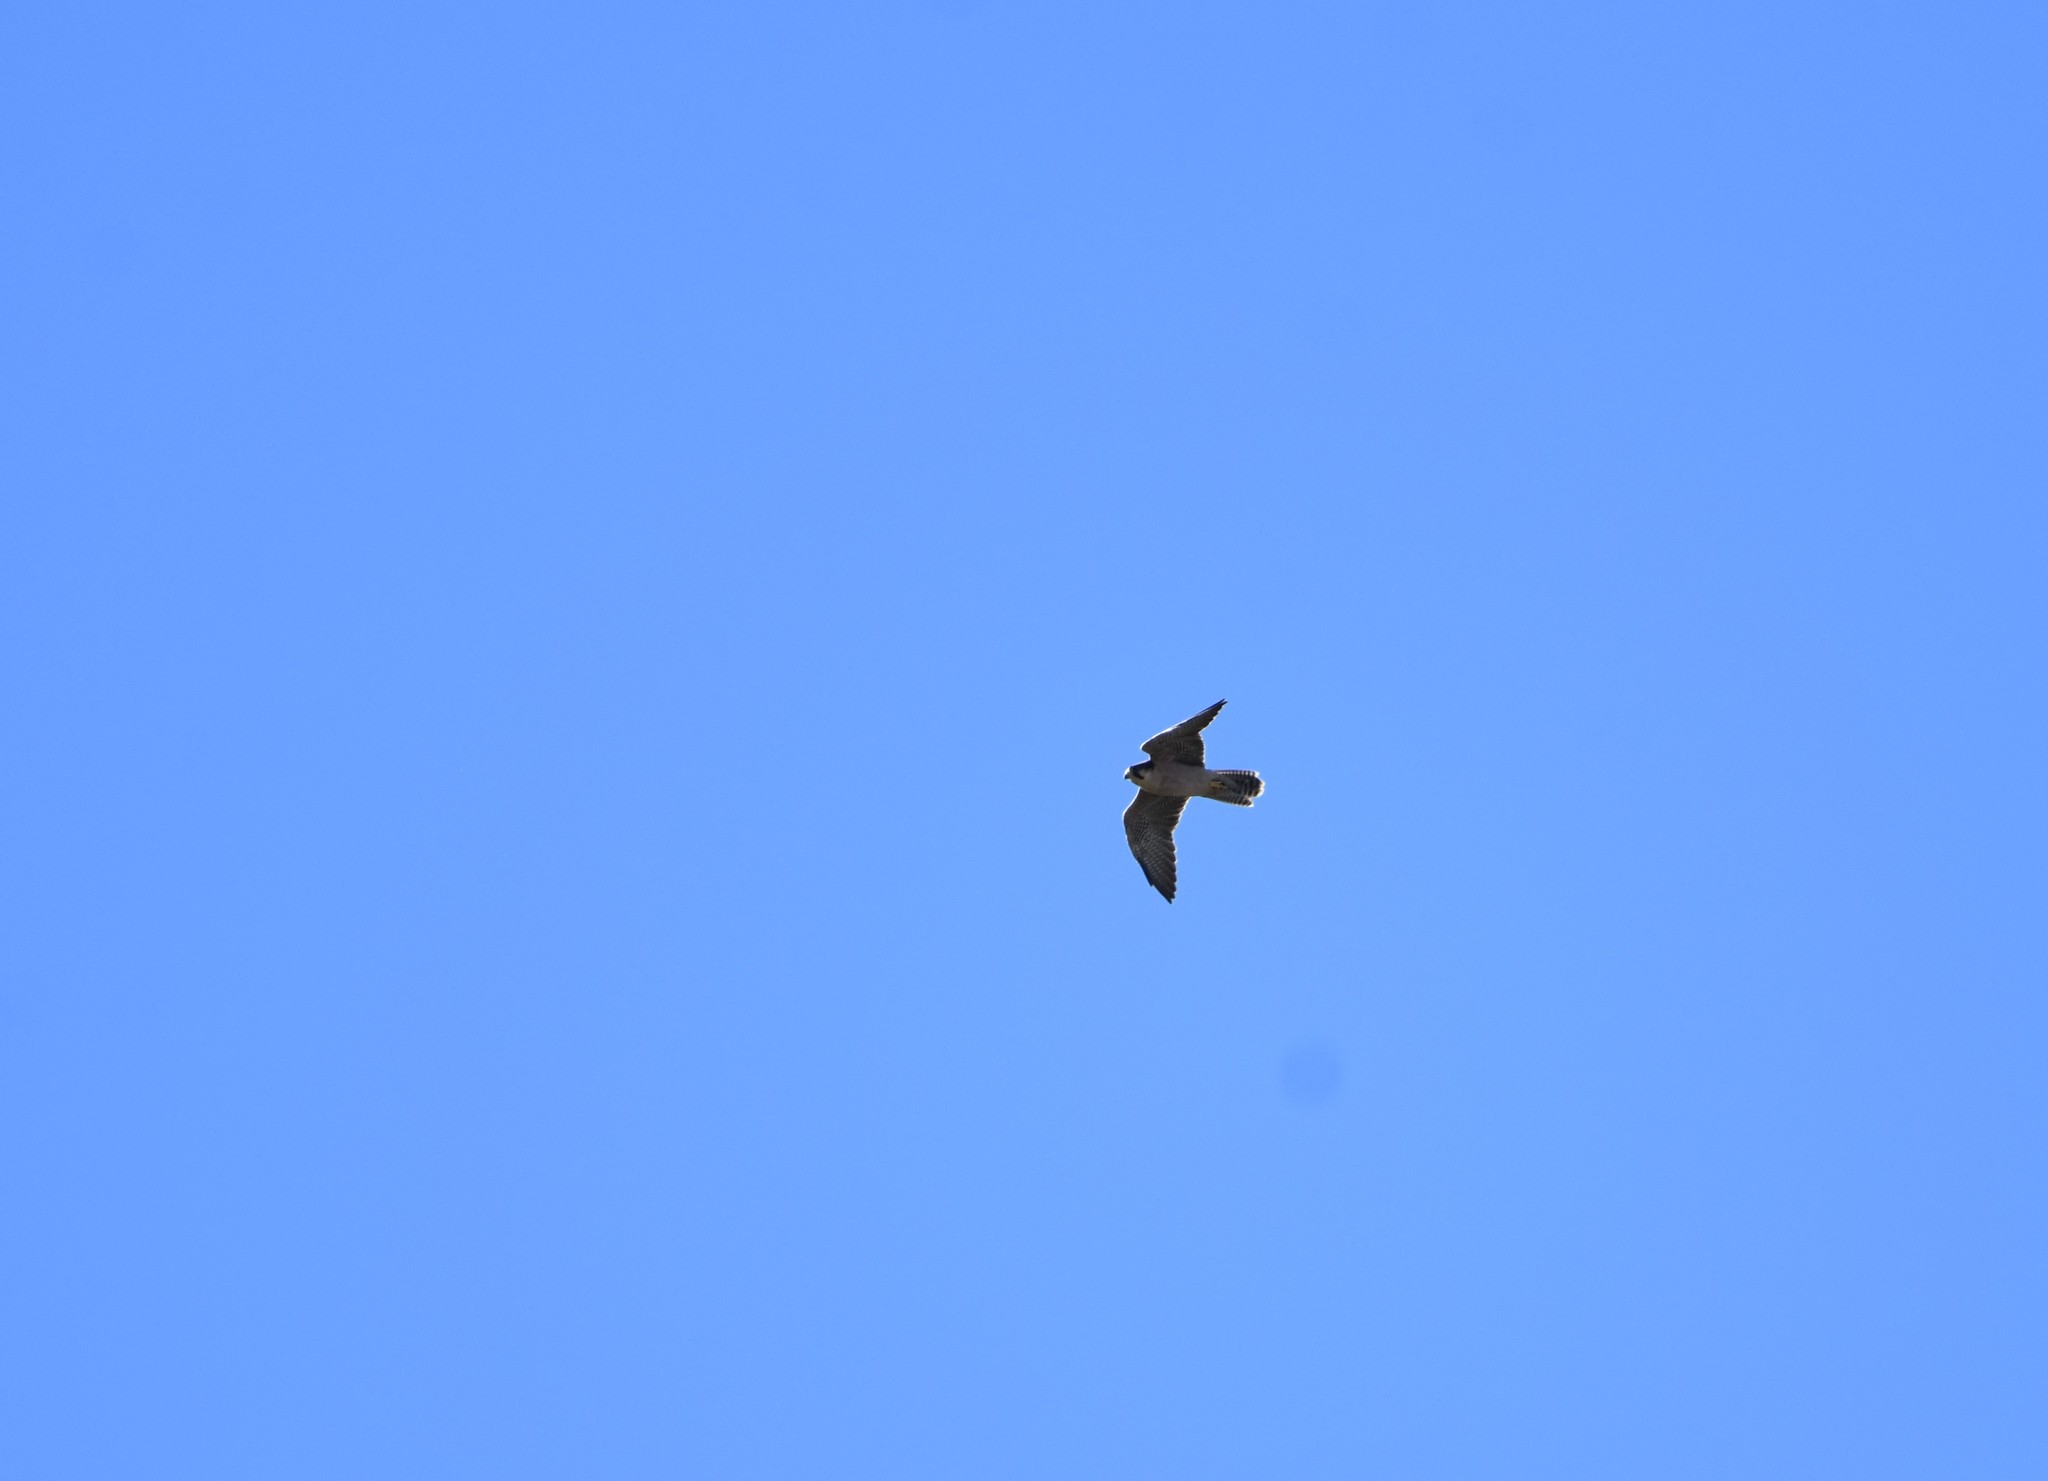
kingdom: Animalia
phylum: Chordata
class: Aves
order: Falconiformes
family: Falconidae
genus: Falco
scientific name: Falco biarmicus
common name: Lanner falcon
